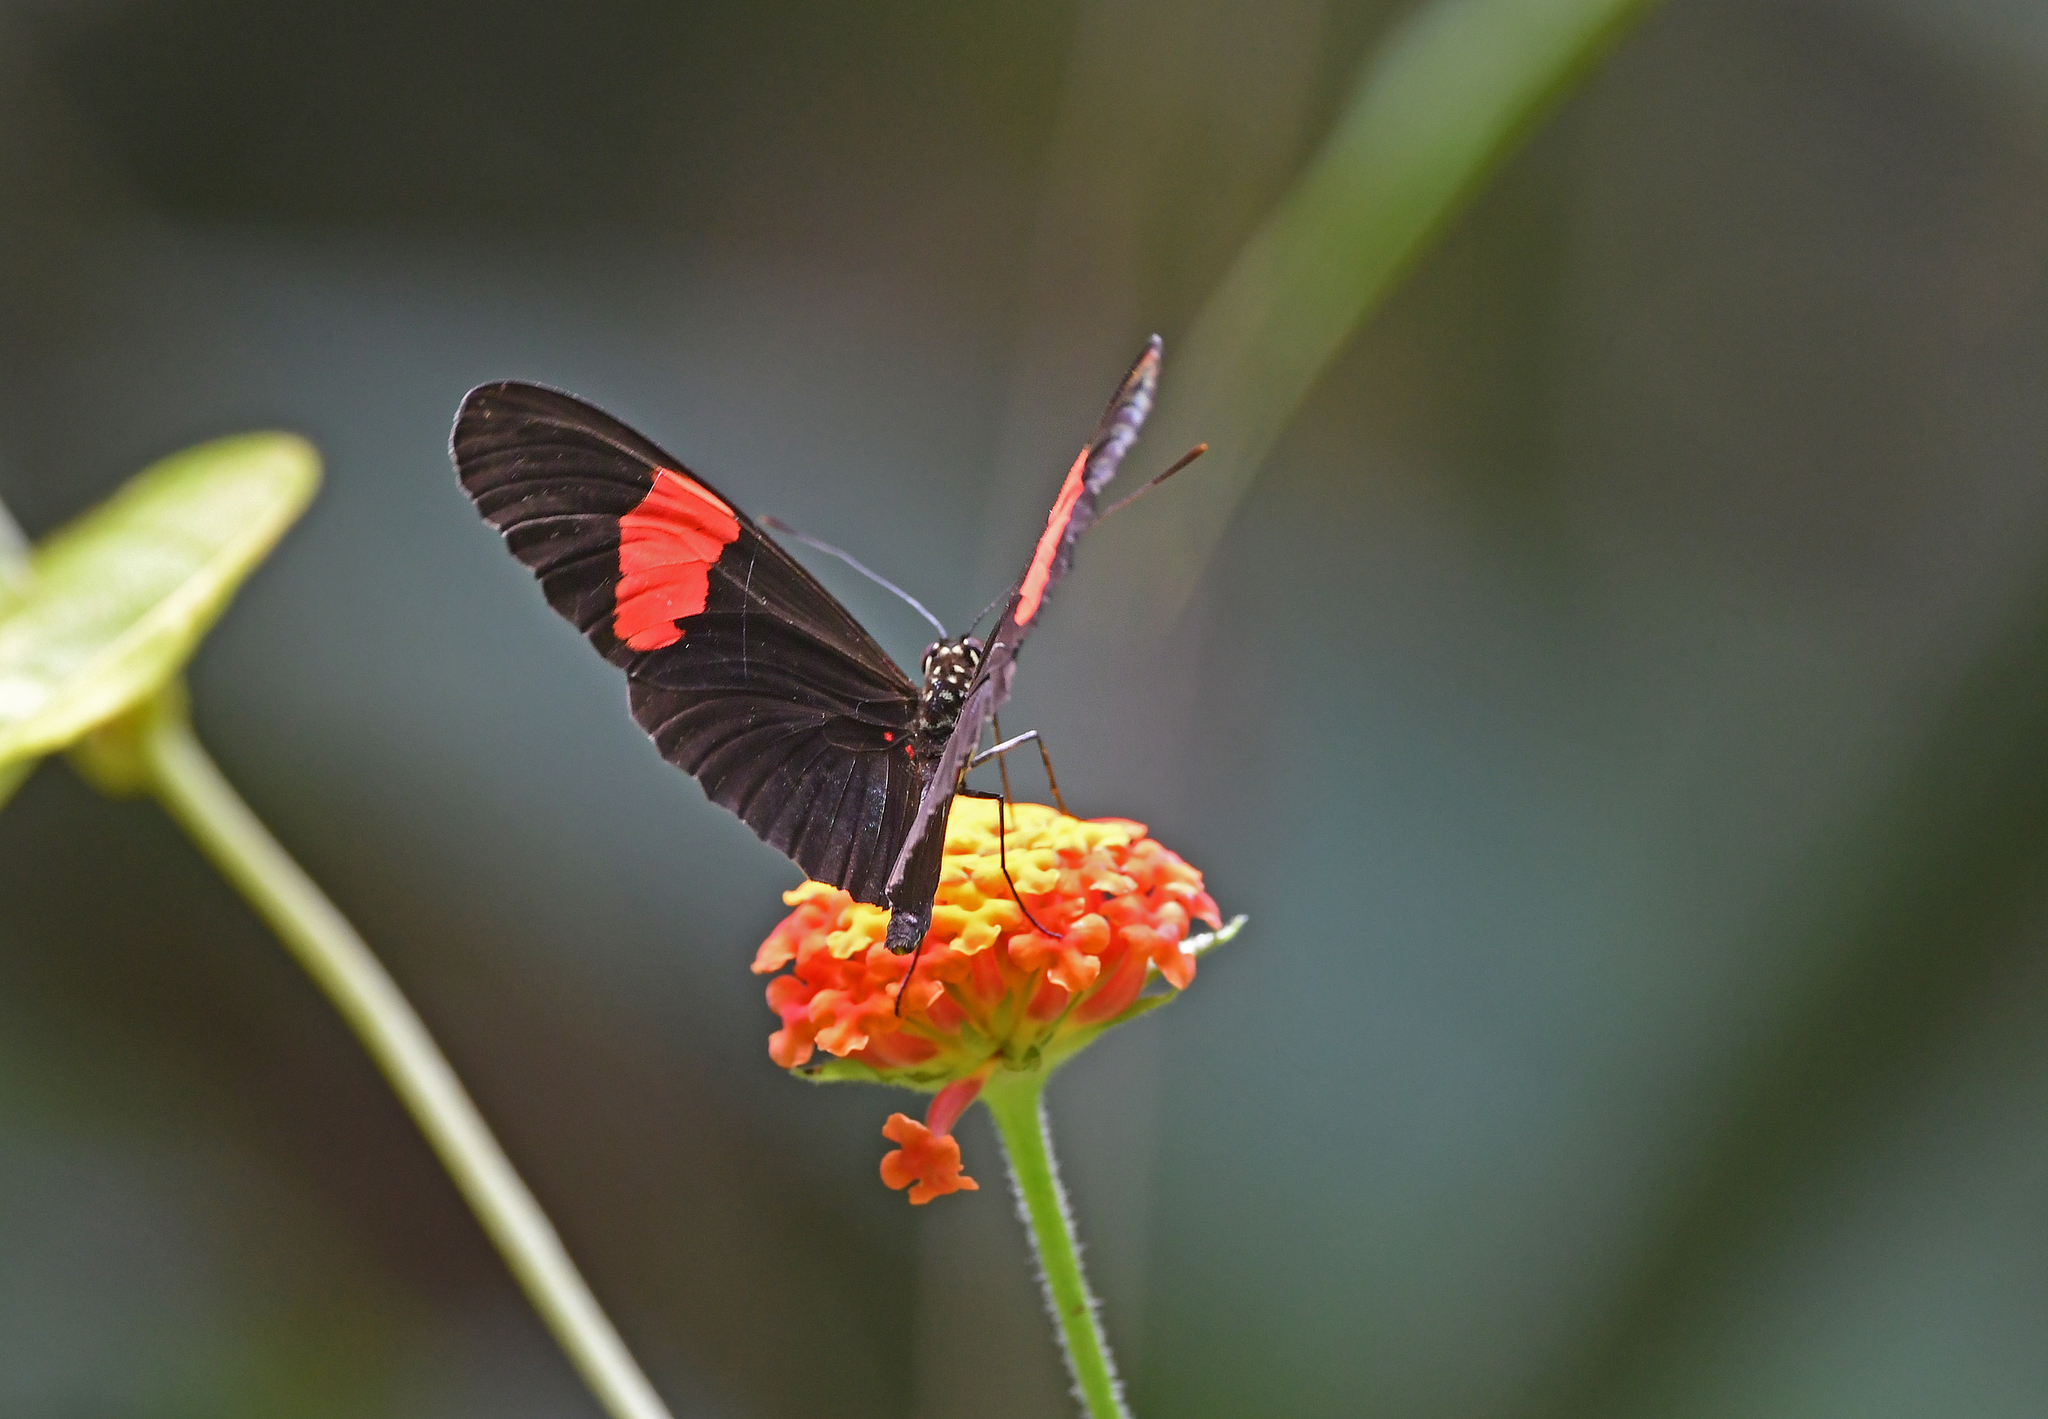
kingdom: Animalia
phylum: Arthropoda
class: Insecta
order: Lepidoptera
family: Nymphalidae
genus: Heliconius
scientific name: Heliconius erato
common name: Common patch longwing
